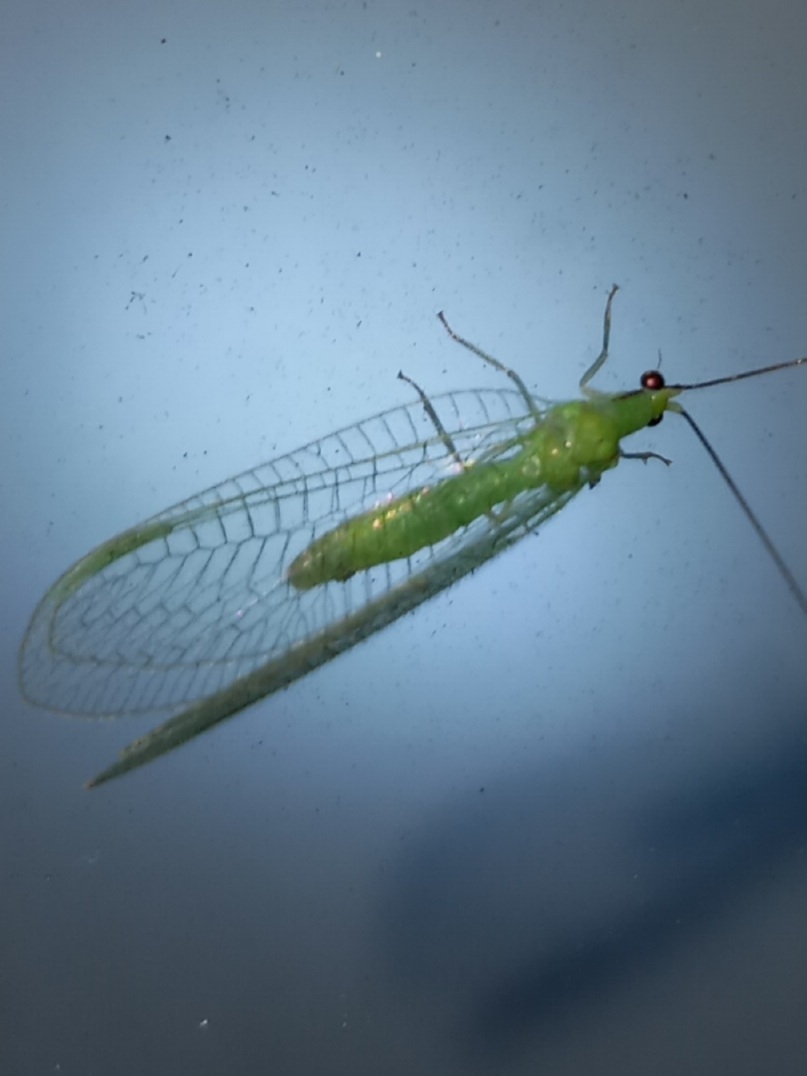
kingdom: Animalia
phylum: Arthropoda
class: Insecta
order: Neuroptera
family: Chrysopidae
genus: Ceraeochrysa
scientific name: Ceraeochrysa lineaticornis
